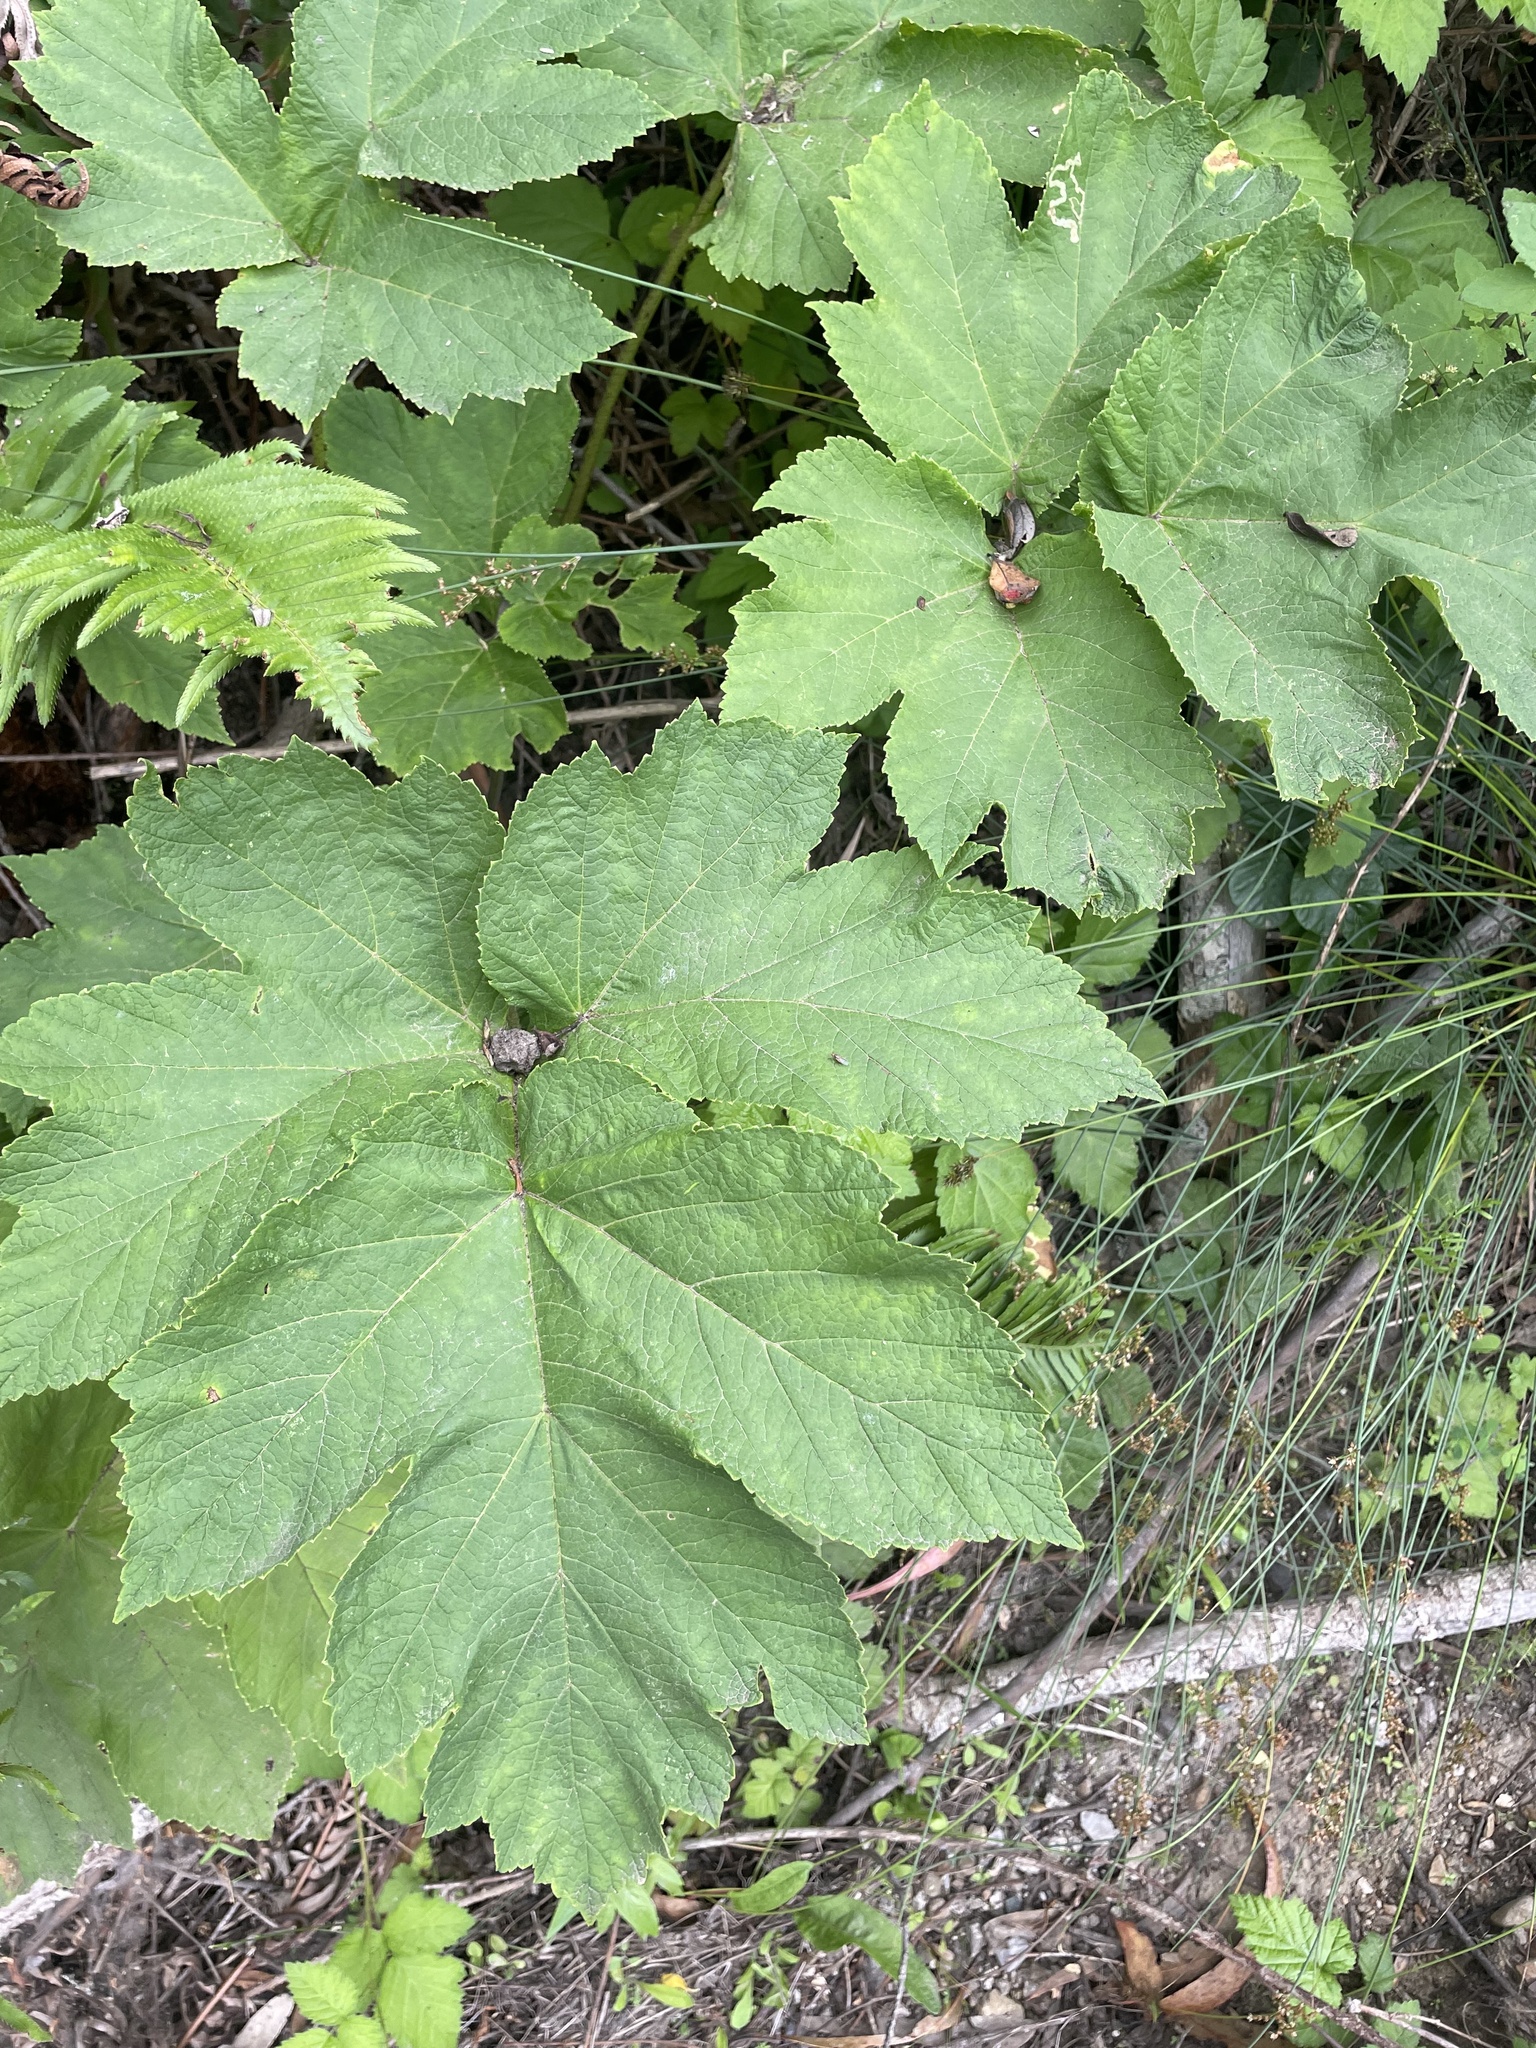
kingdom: Plantae
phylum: Tracheophyta
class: Magnoliopsida
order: Apiales
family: Apiaceae
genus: Heracleum
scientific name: Heracleum maximum
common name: American cow parsnip
